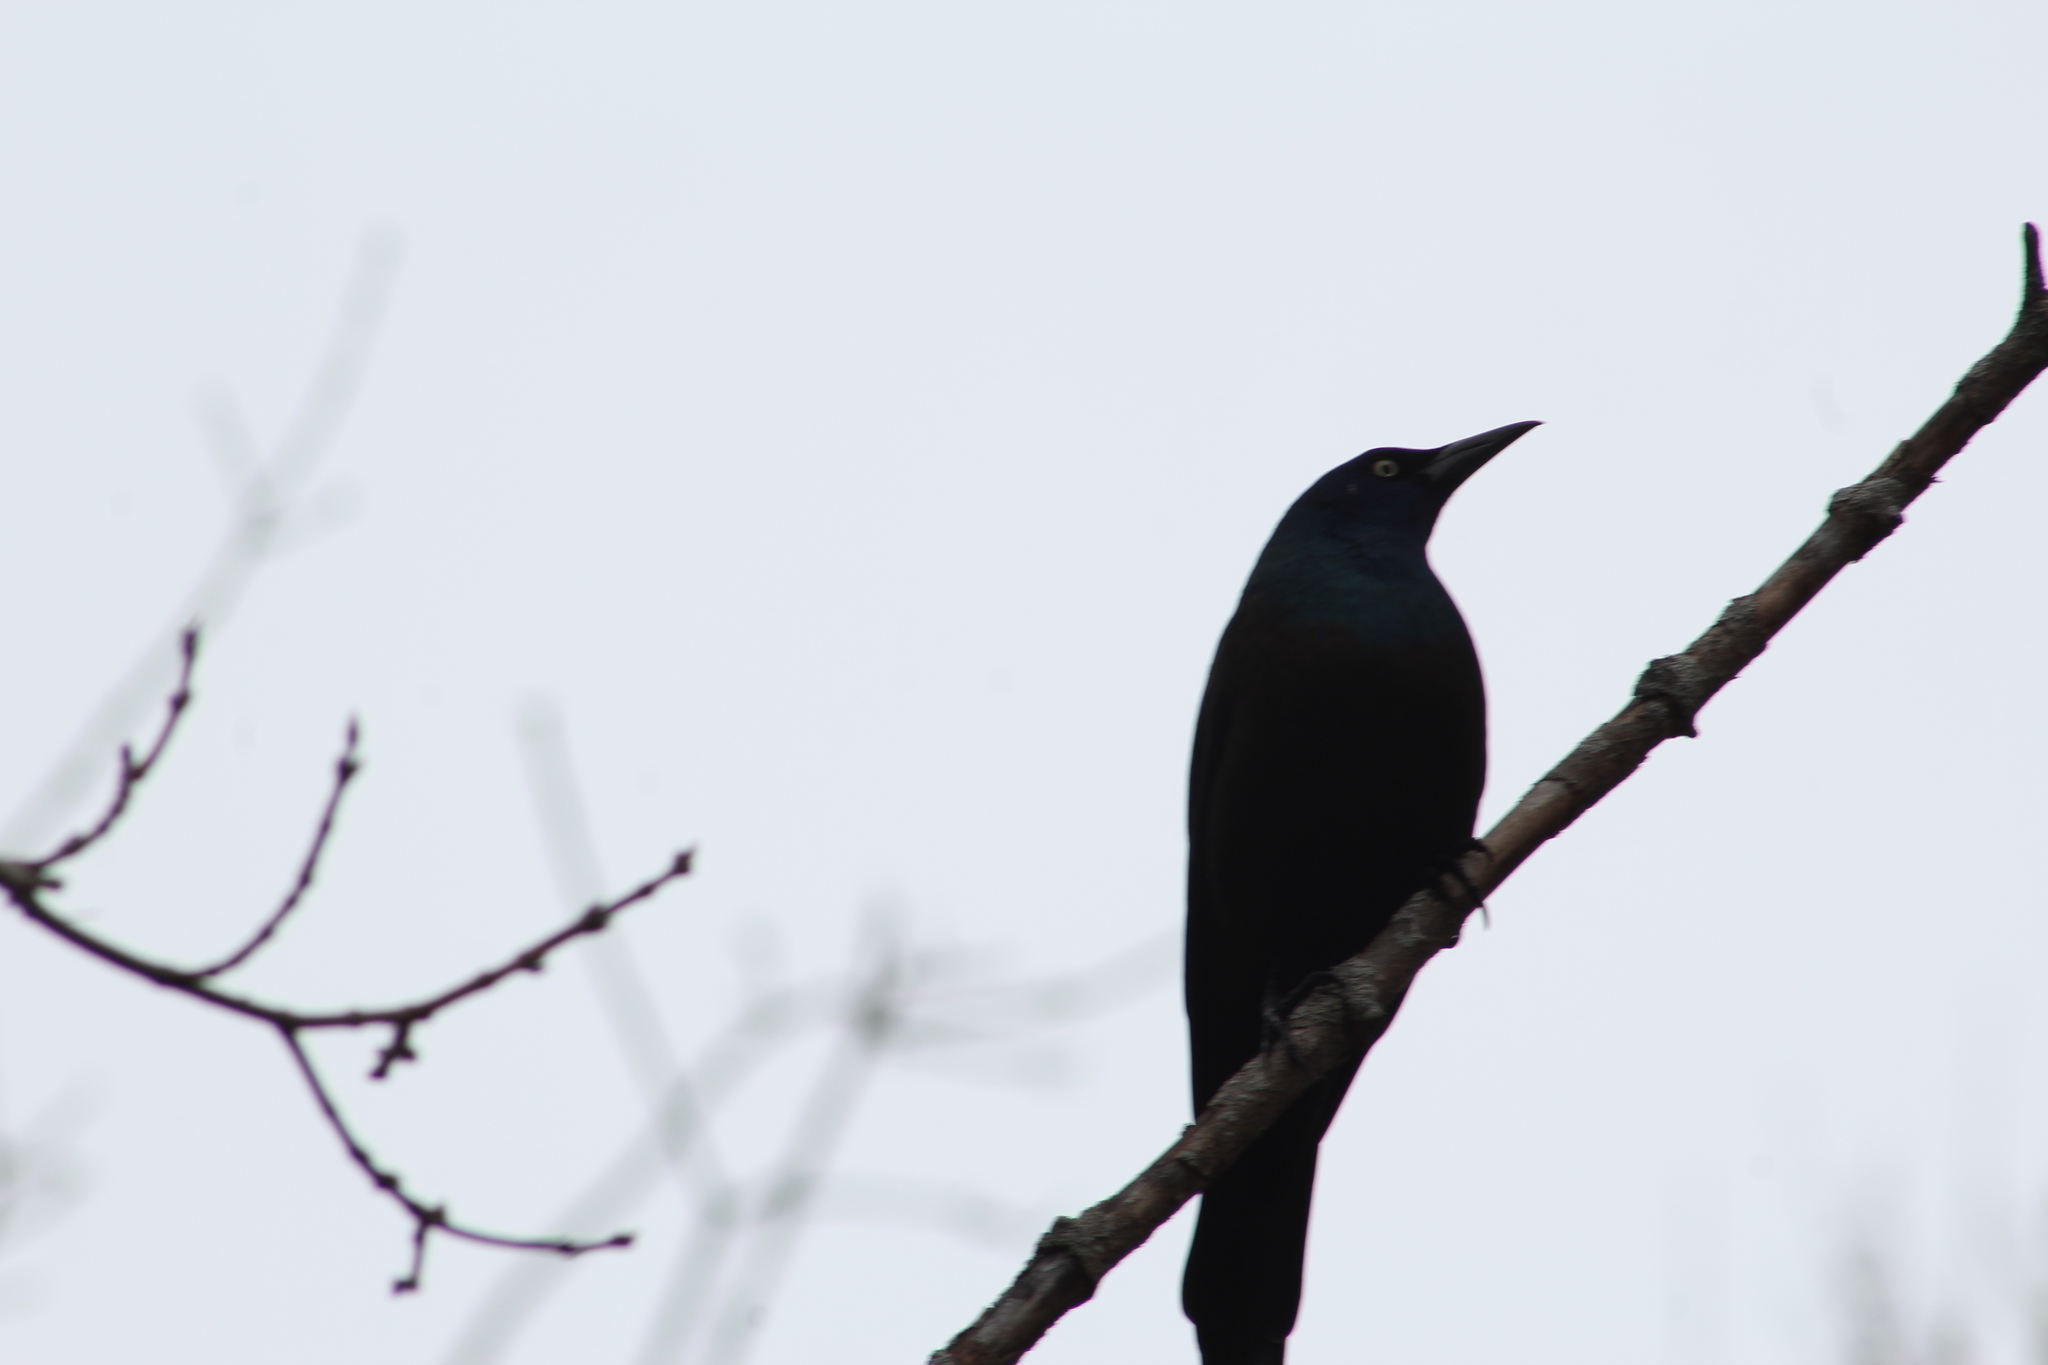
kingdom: Animalia
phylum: Chordata
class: Aves
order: Passeriformes
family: Icteridae
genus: Quiscalus
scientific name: Quiscalus quiscula
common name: Common grackle
